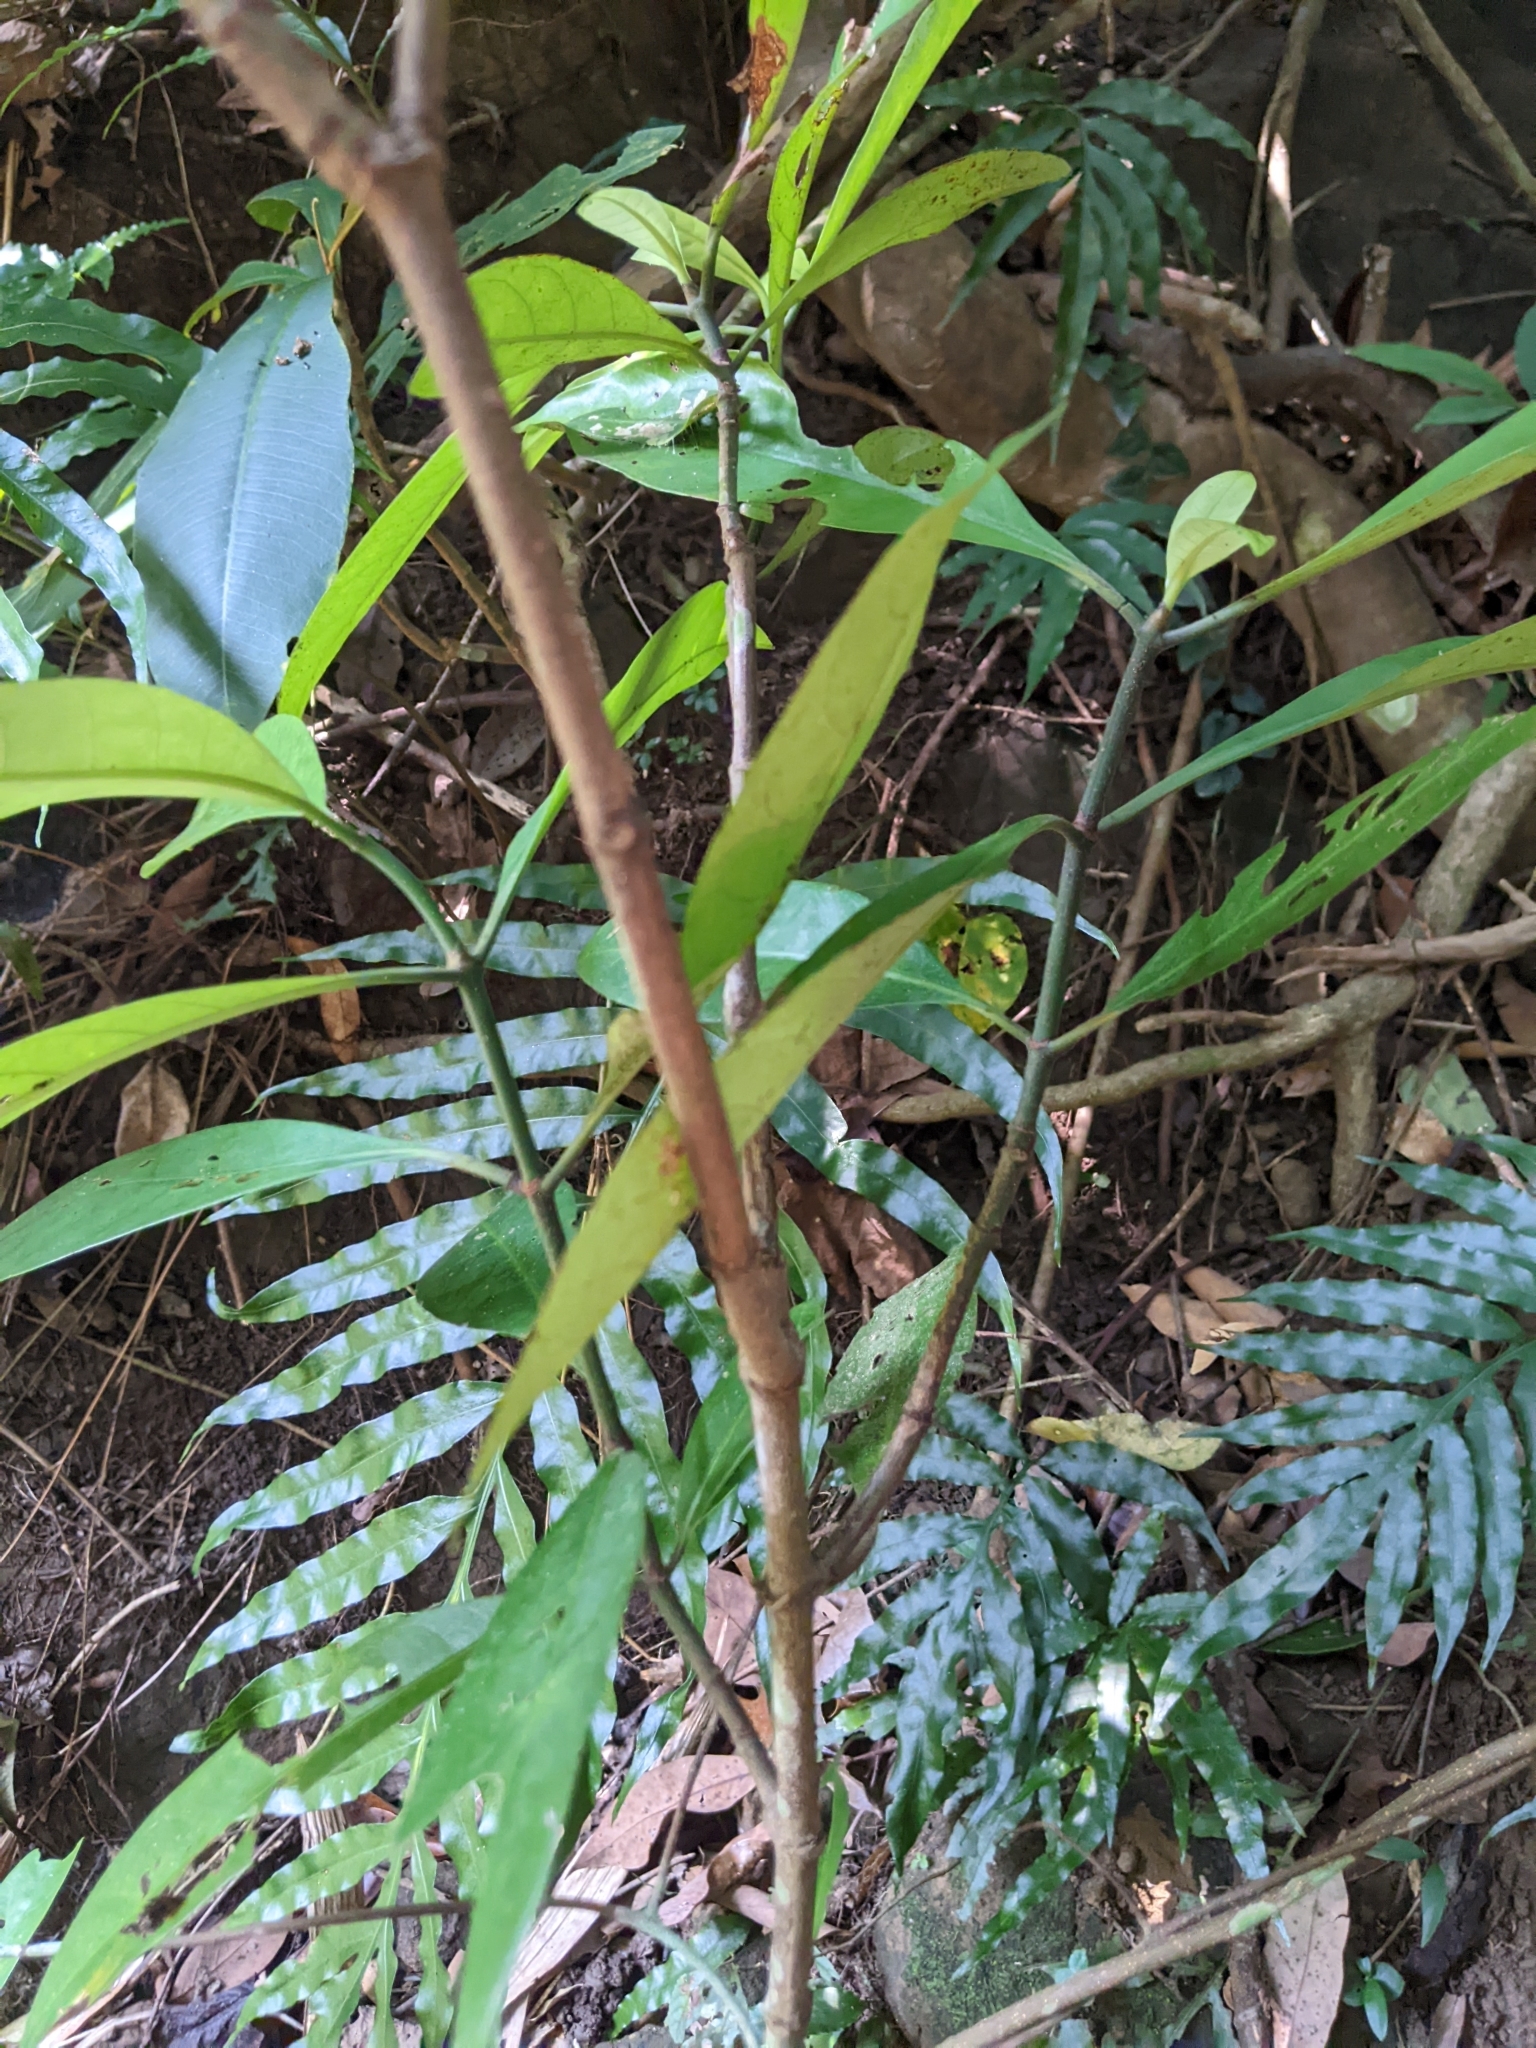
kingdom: Plantae
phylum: Tracheophyta
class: Magnoliopsida
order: Gentianales
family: Rubiaceae
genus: Psychotria
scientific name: Psychotria asiatica
